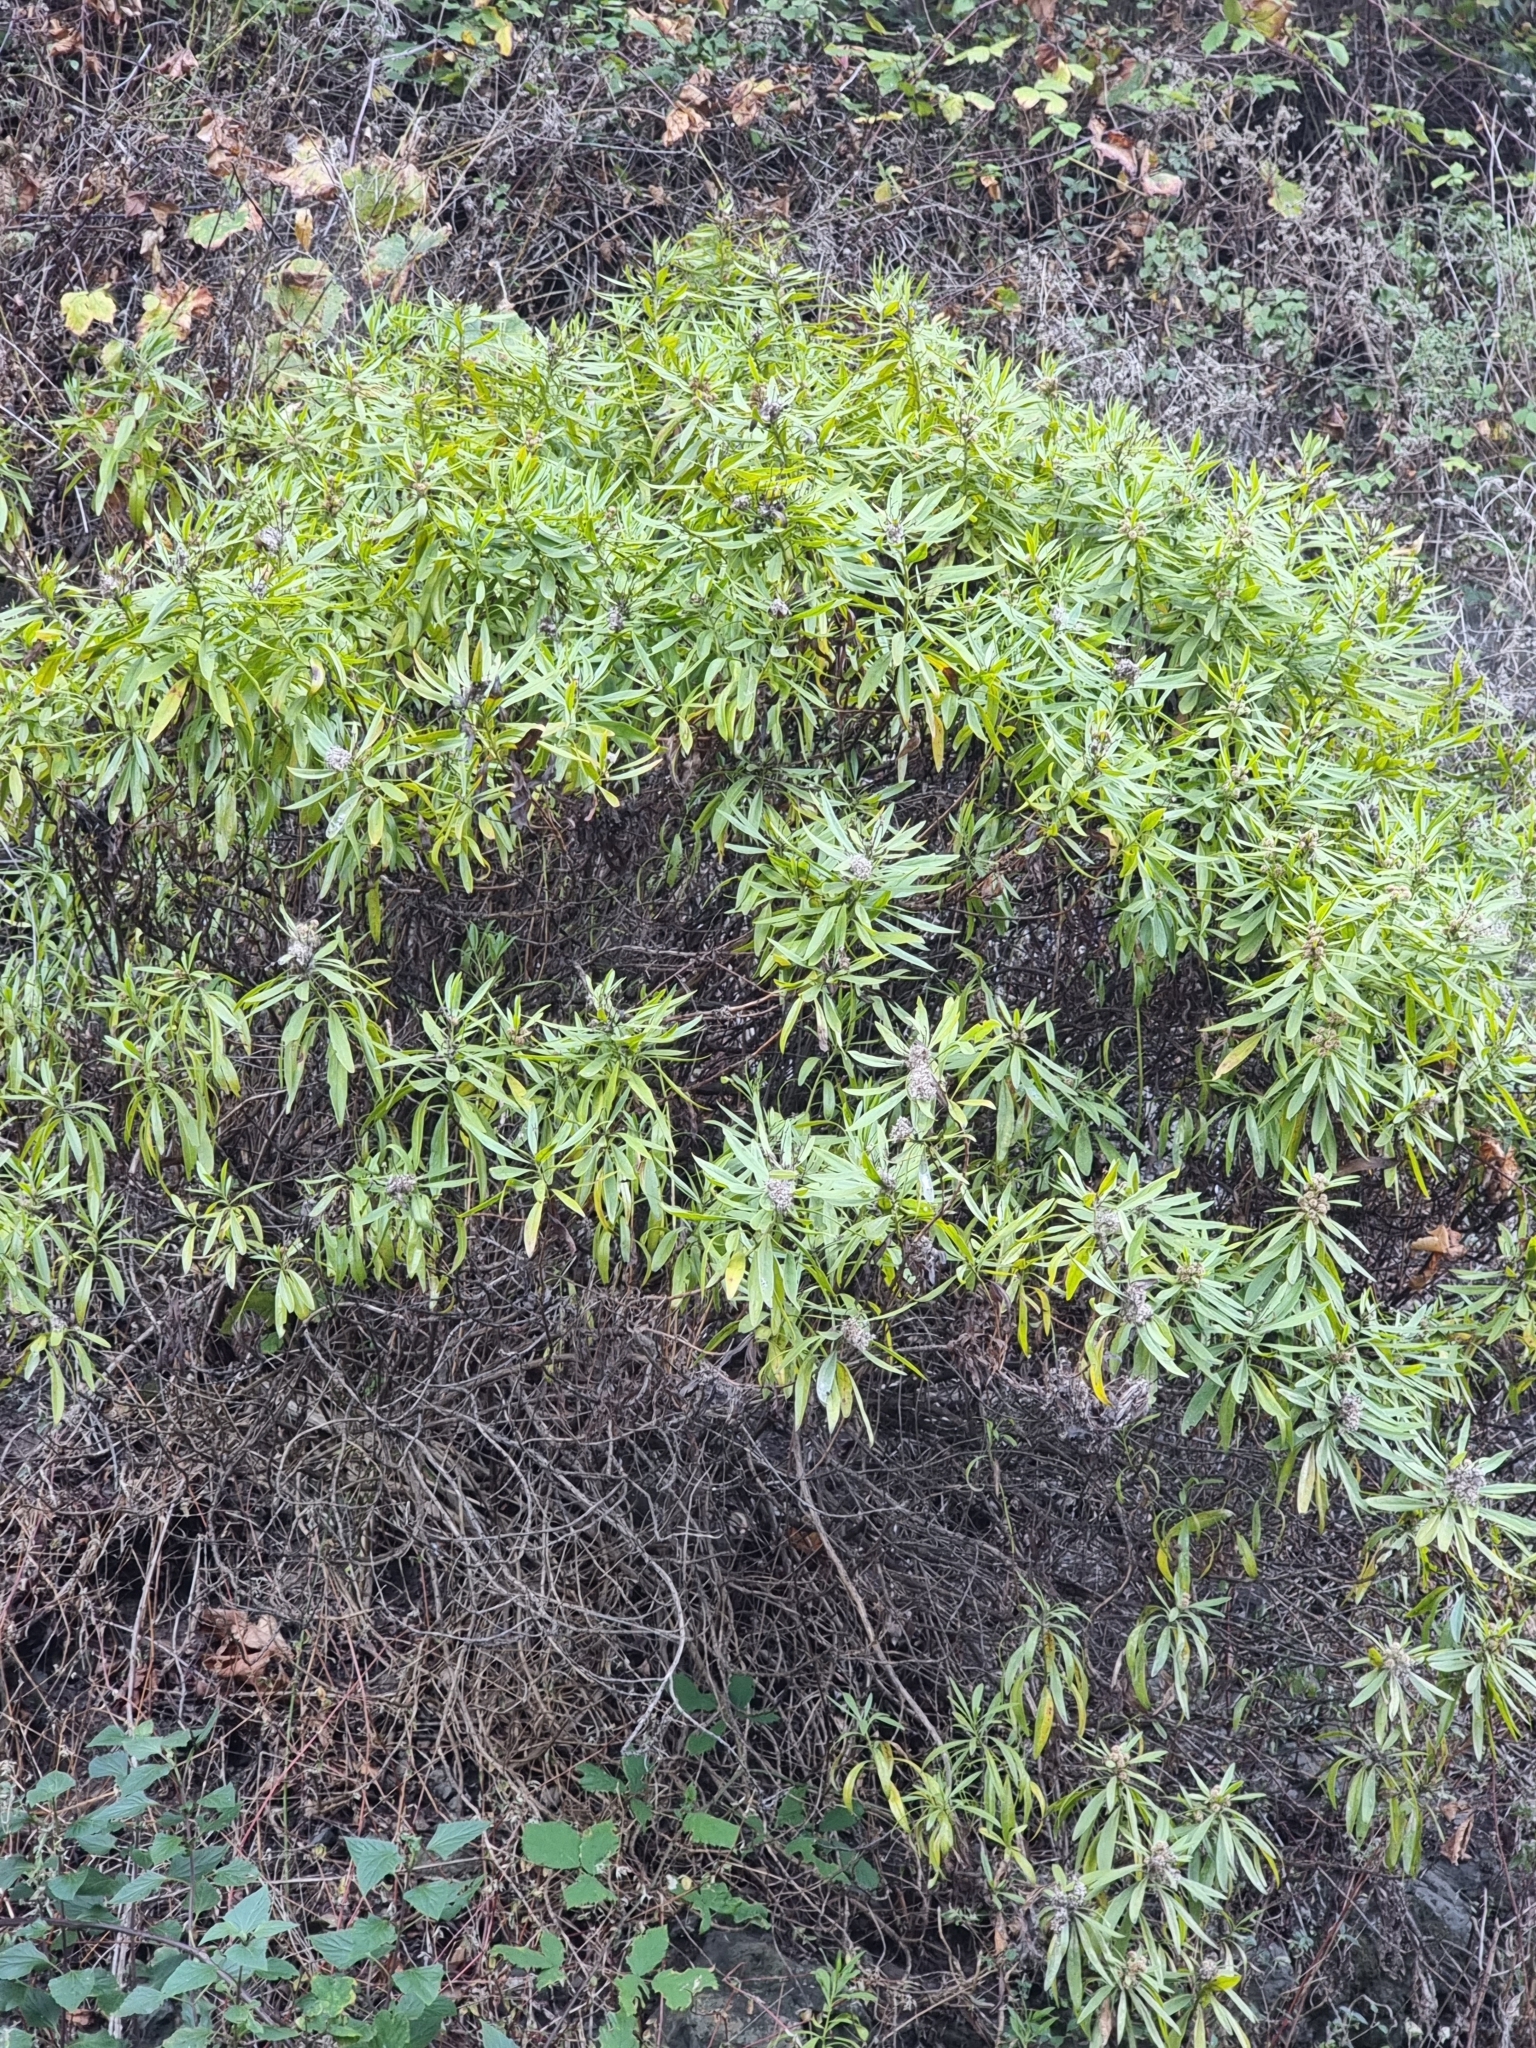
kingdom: Plantae
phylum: Tracheophyta
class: Magnoliopsida
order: Lamiales
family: Plantaginaceae
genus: Globularia
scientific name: Globularia salicina
